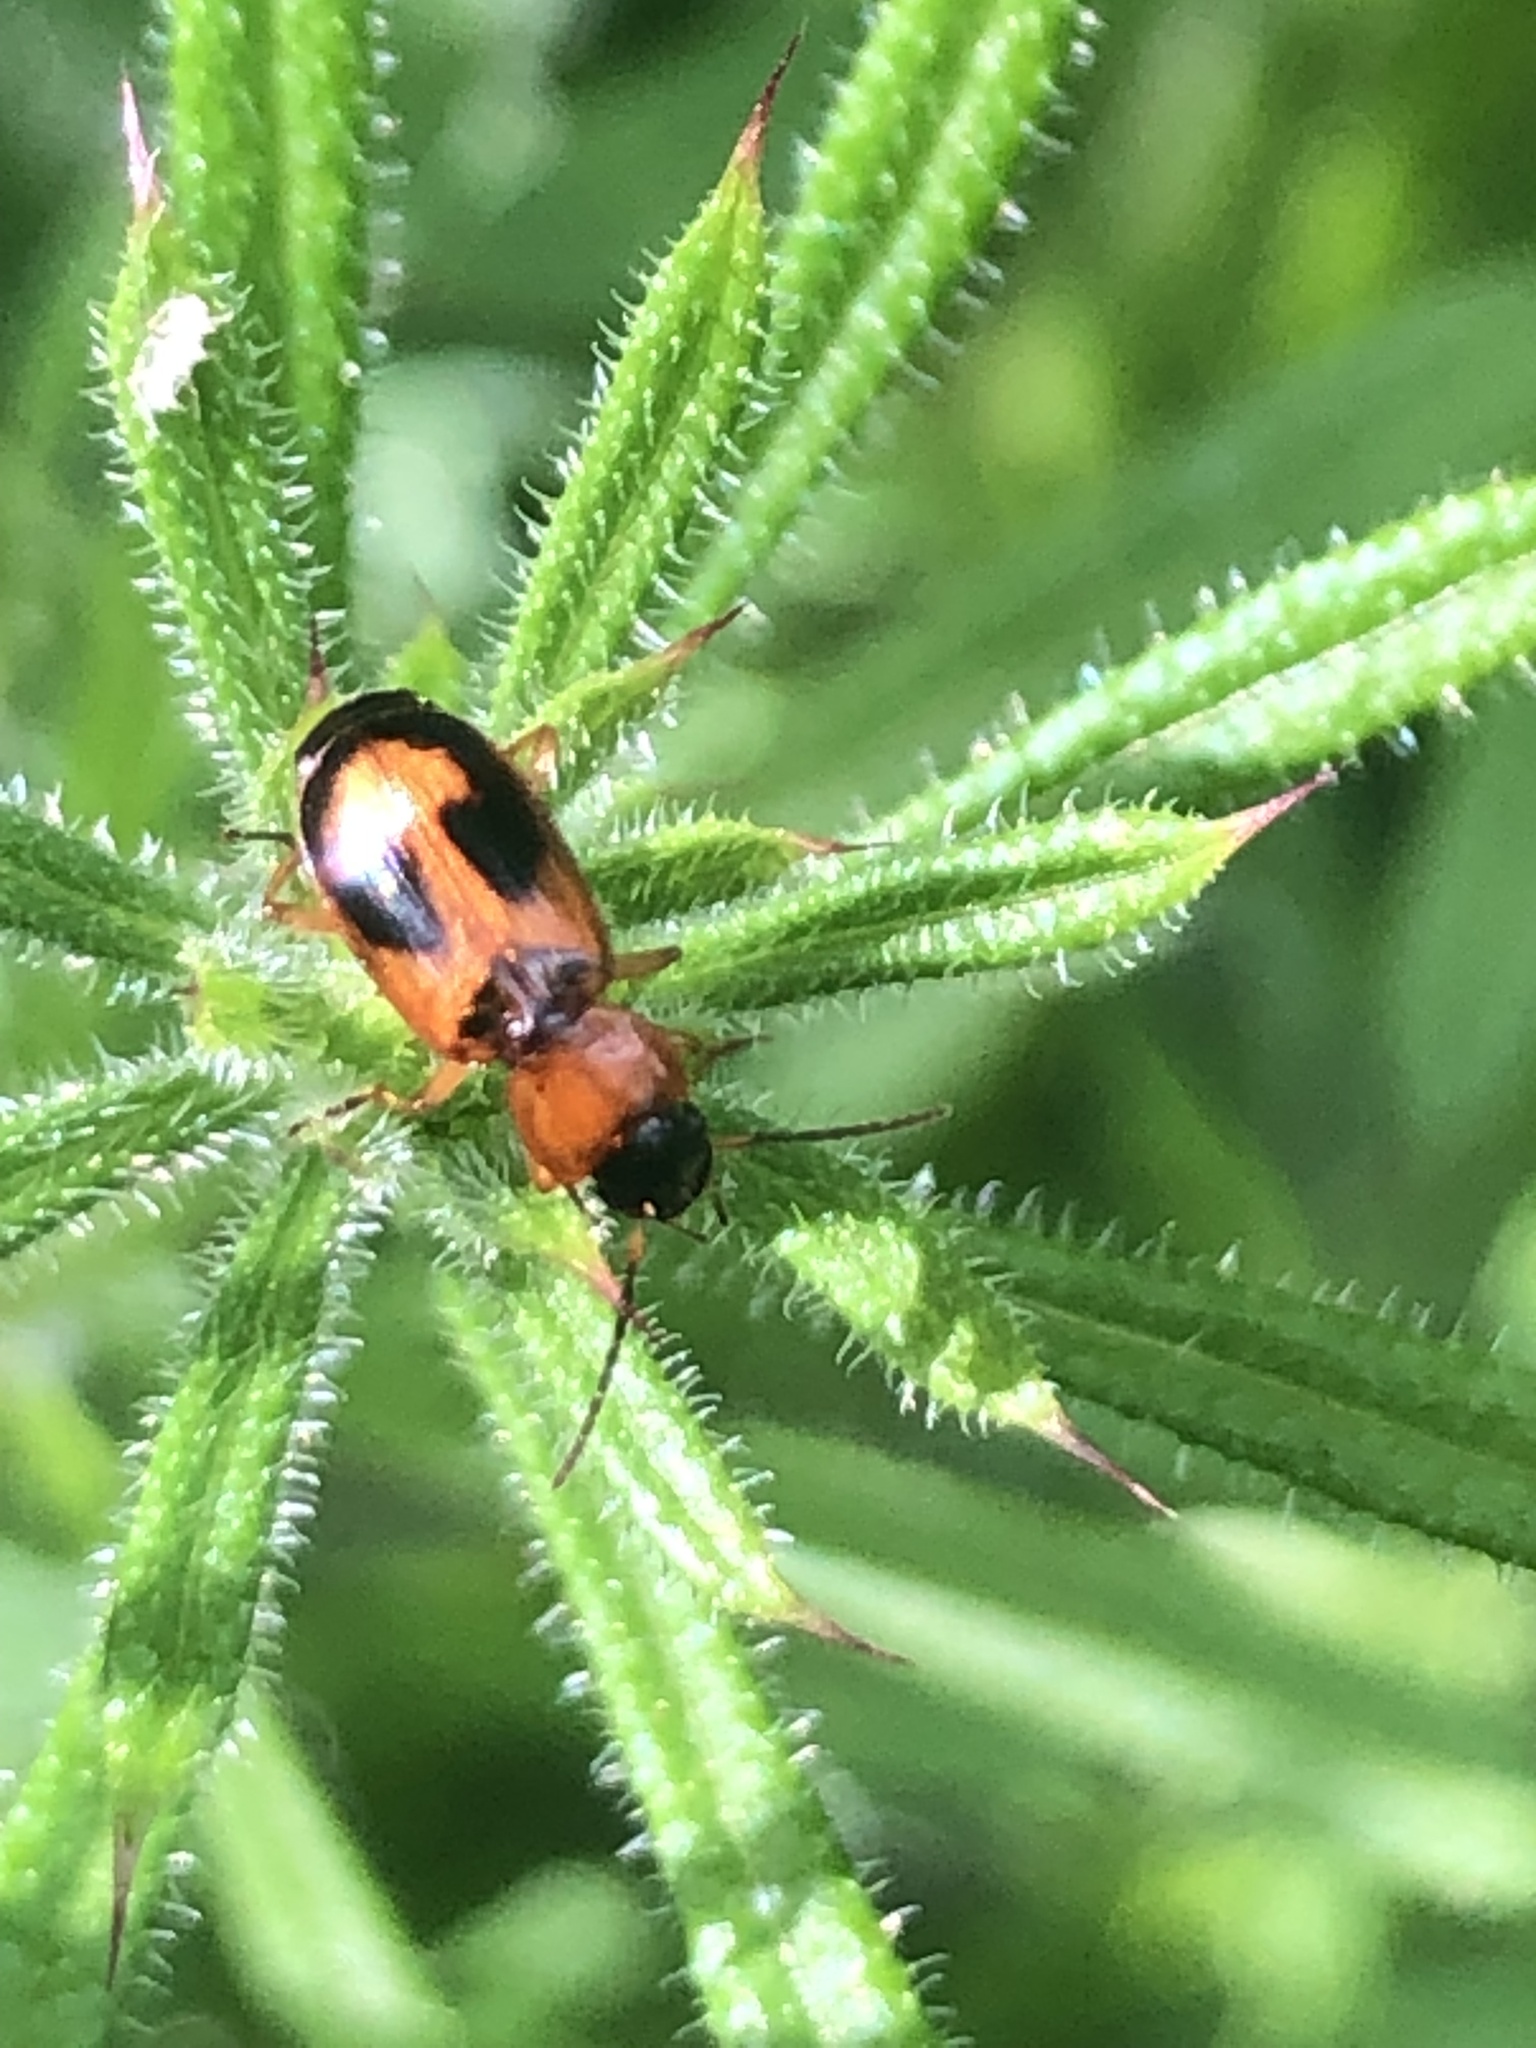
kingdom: Animalia
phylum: Arthropoda
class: Insecta
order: Coleoptera
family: Carabidae
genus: Badister
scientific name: Badister bullatus
